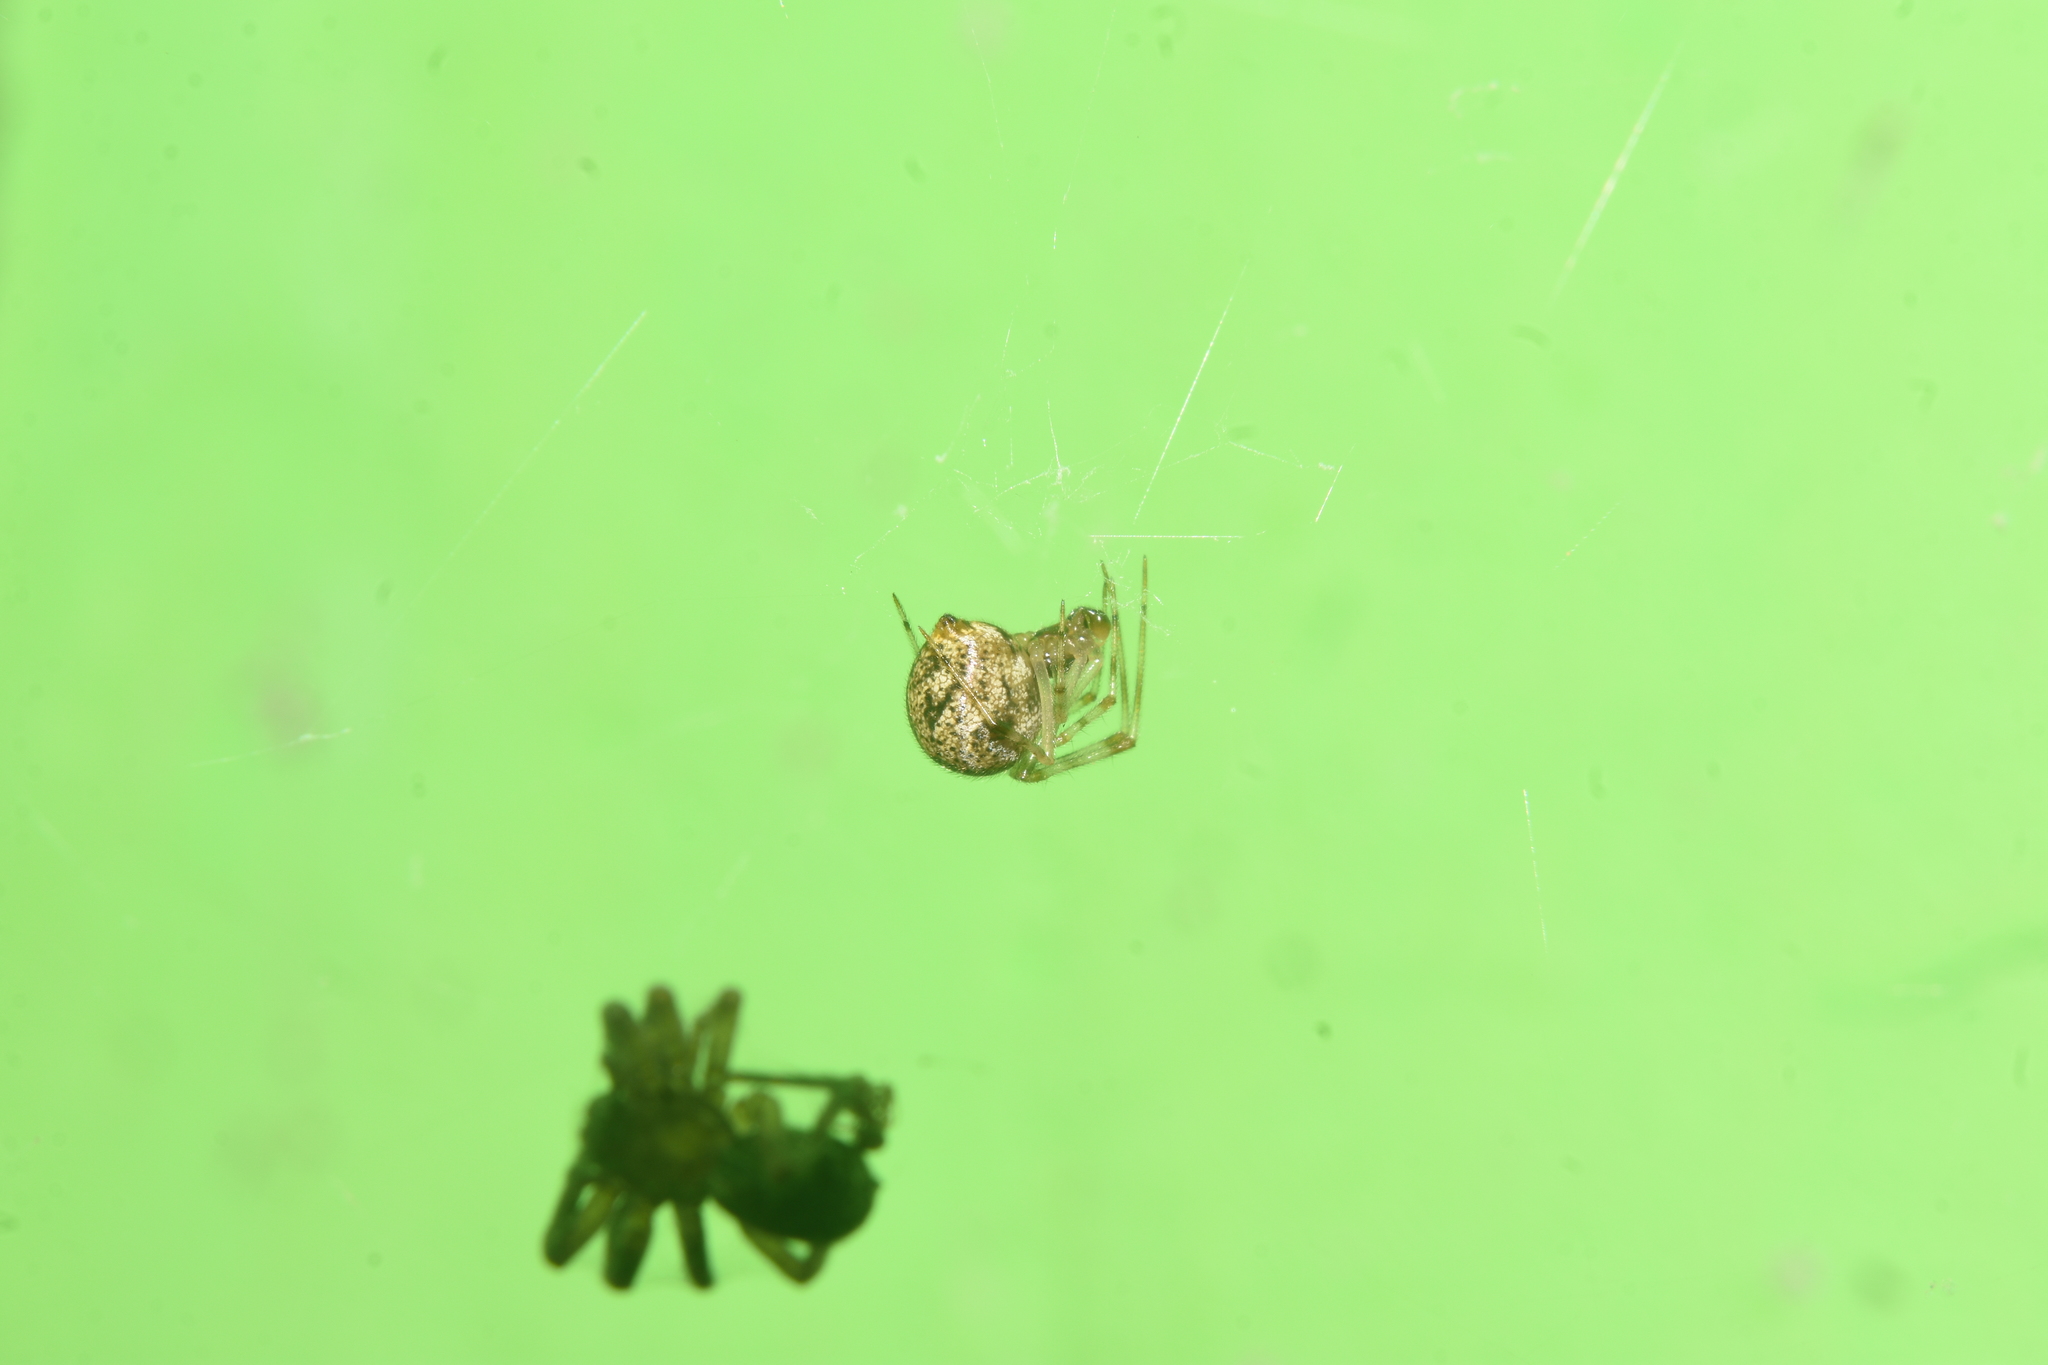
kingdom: Animalia
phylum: Arthropoda
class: Arachnida
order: Araneae
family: Theridiidae
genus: Parasteatoda
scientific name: Parasteatoda tepidariorum
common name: Common house spider
